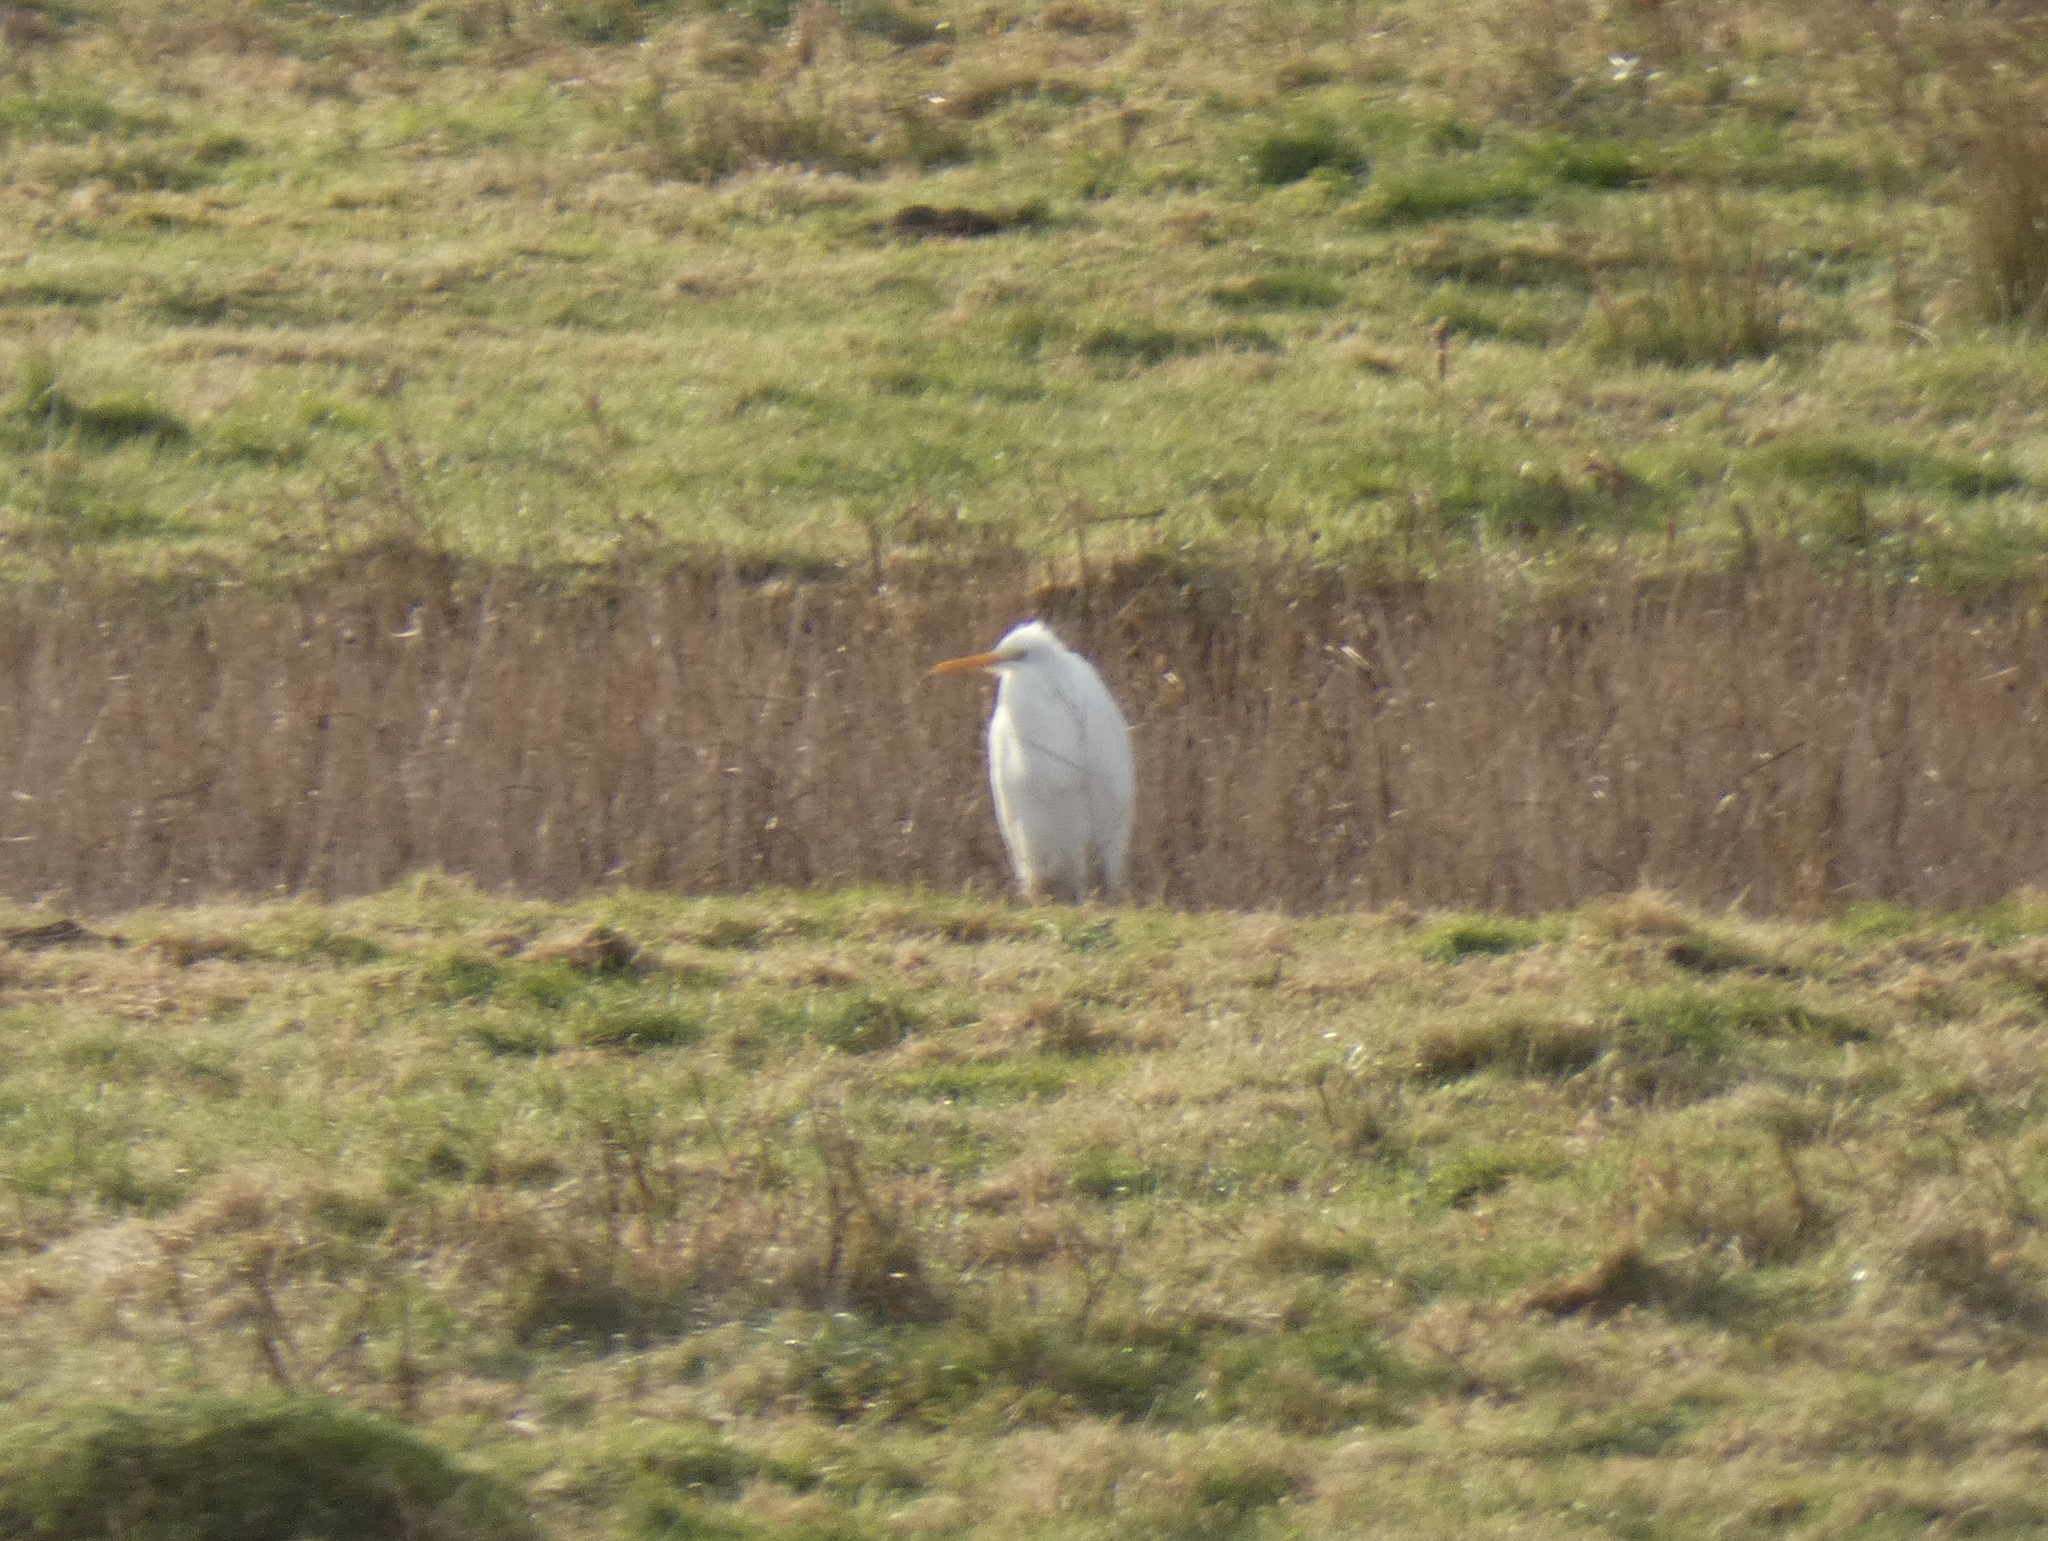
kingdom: Animalia
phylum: Chordata
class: Aves
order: Pelecaniformes
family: Ardeidae
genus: Ardea
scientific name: Ardea alba
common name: Great egret
